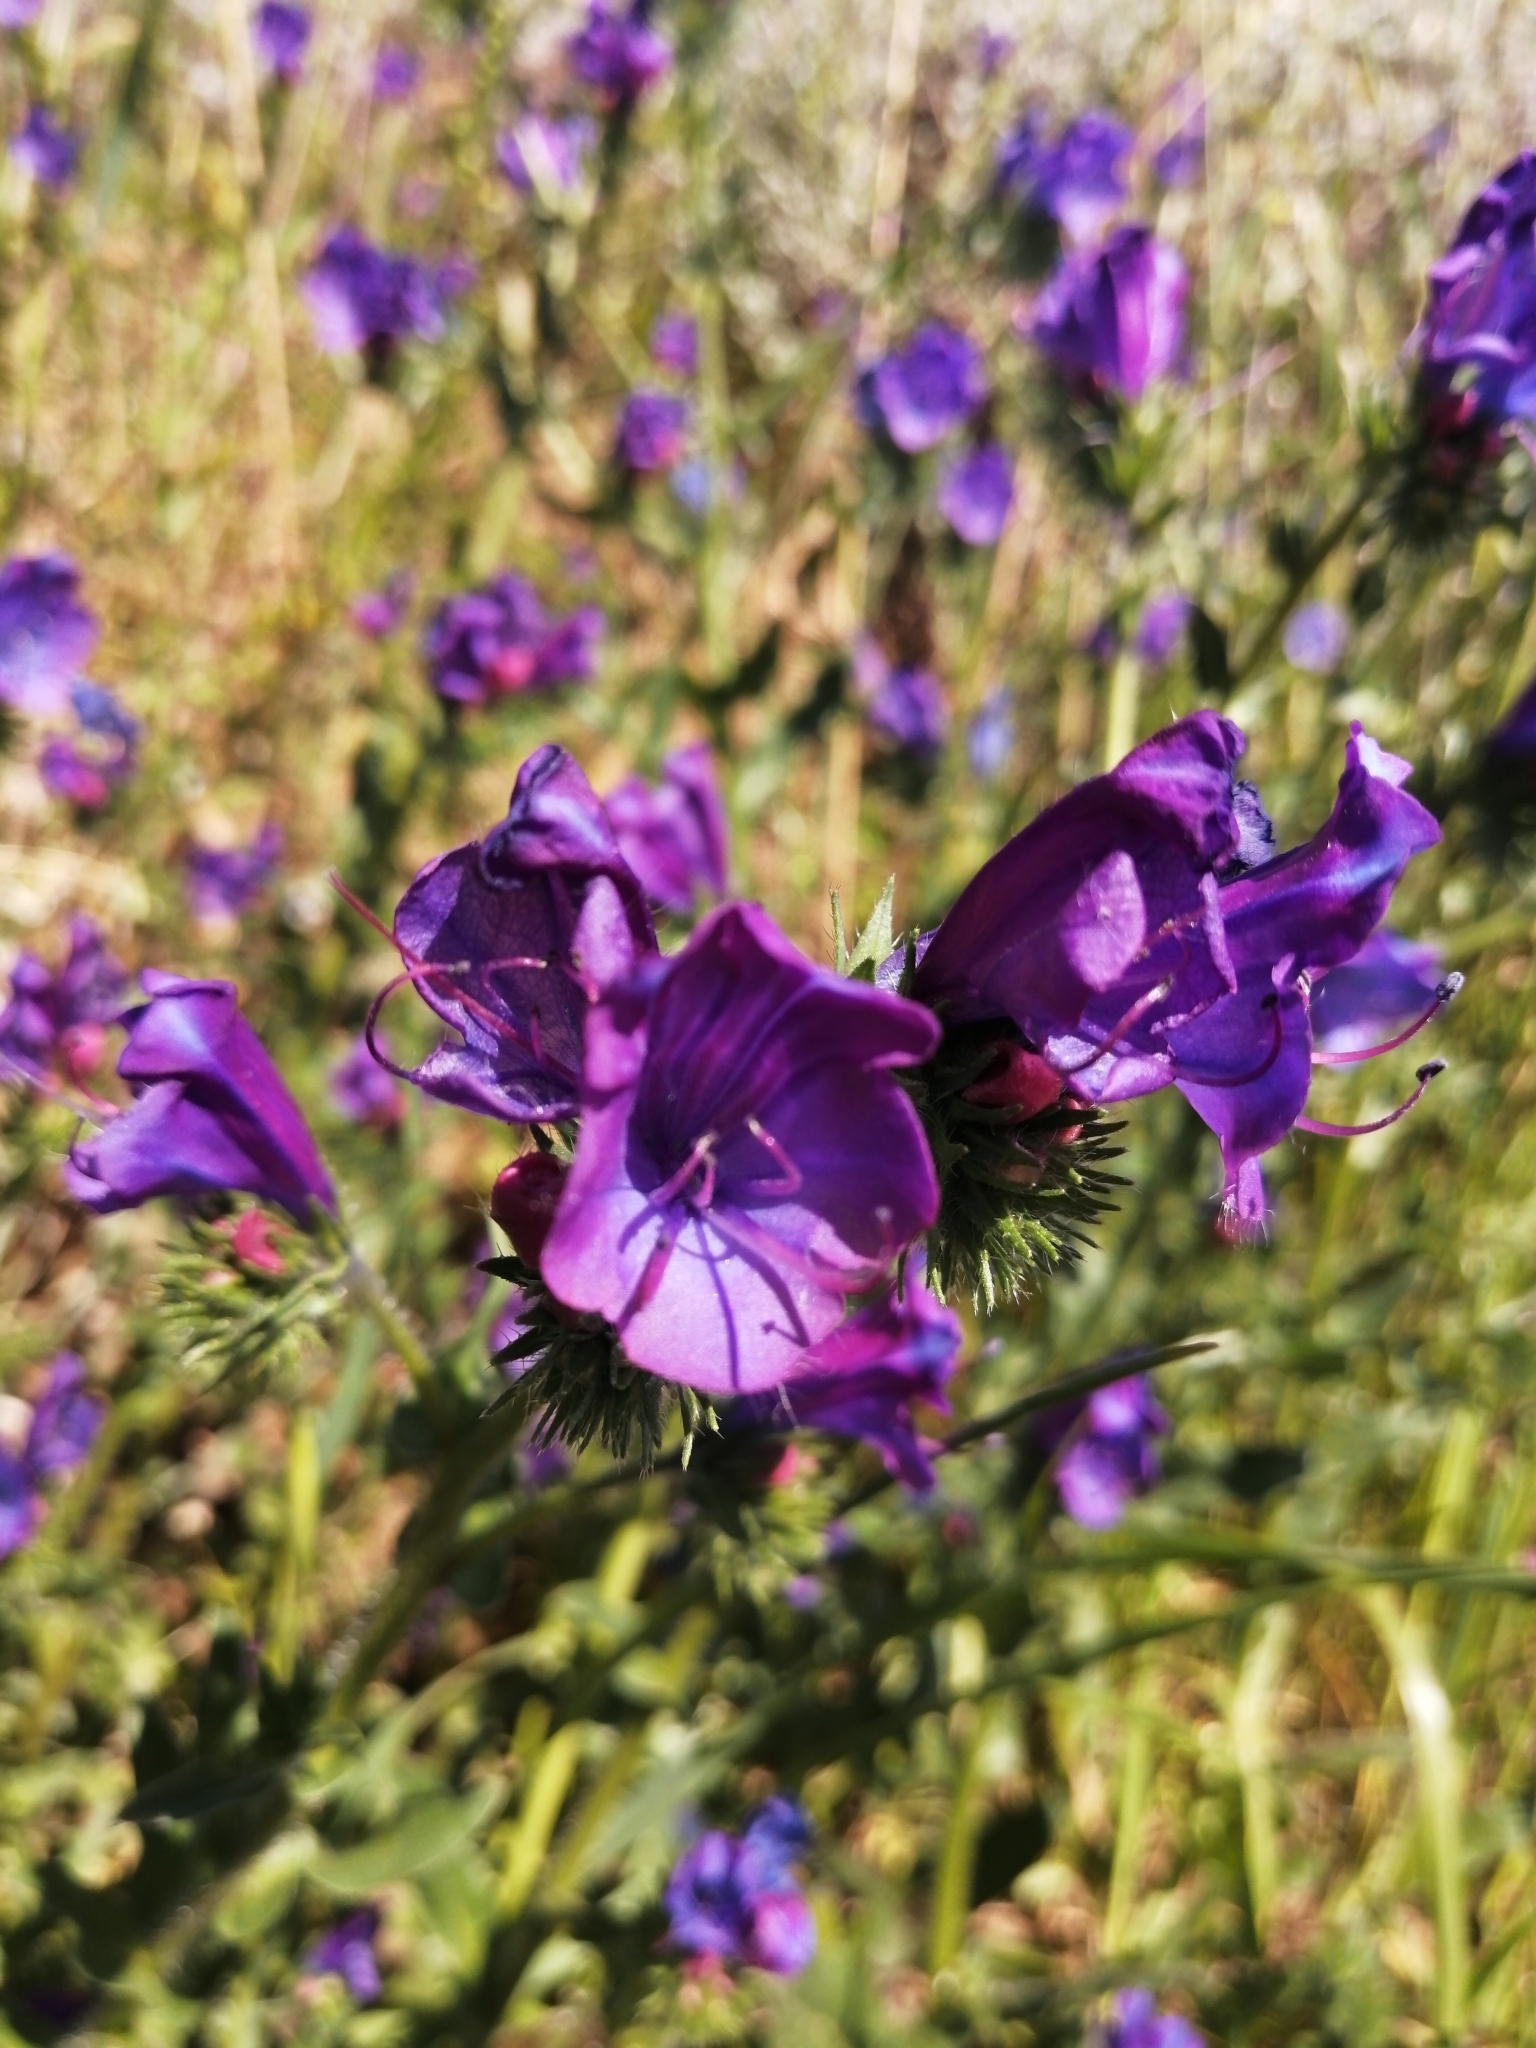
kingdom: Plantae
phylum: Tracheophyta
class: Magnoliopsida
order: Boraginales
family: Boraginaceae
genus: Echium
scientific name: Echium plantagineum
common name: Purple viper's-bugloss
